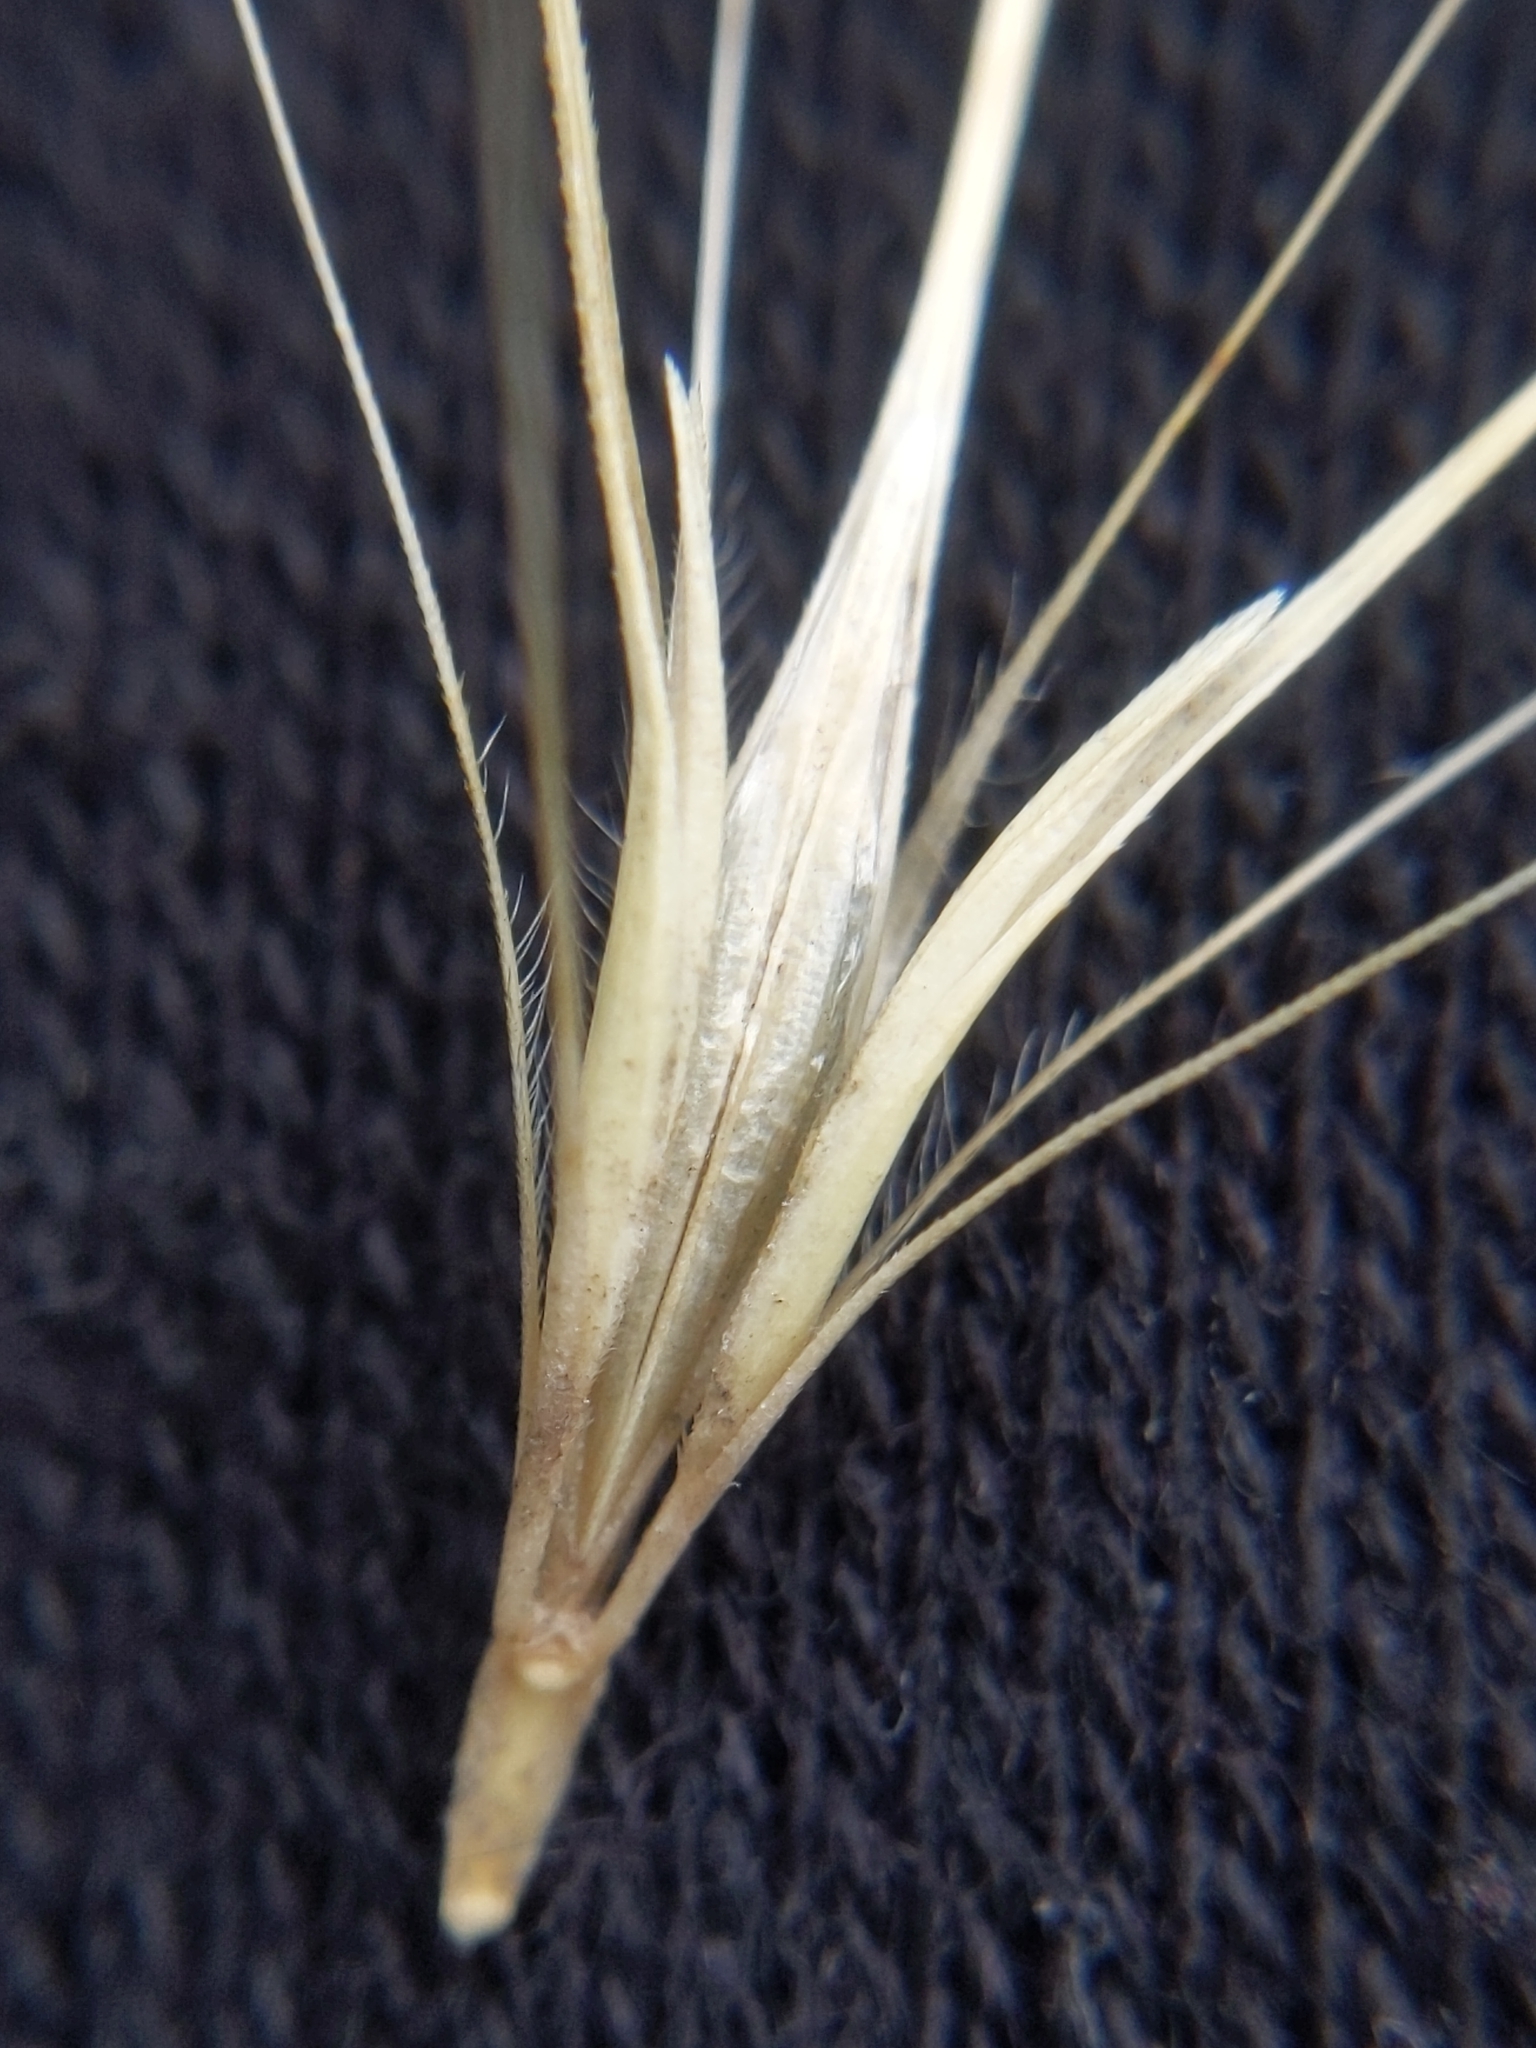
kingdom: Plantae
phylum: Tracheophyta
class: Liliopsida
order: Poales
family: Poaceae
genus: Hordeum
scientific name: Hordeum murinum
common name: Wall barley
